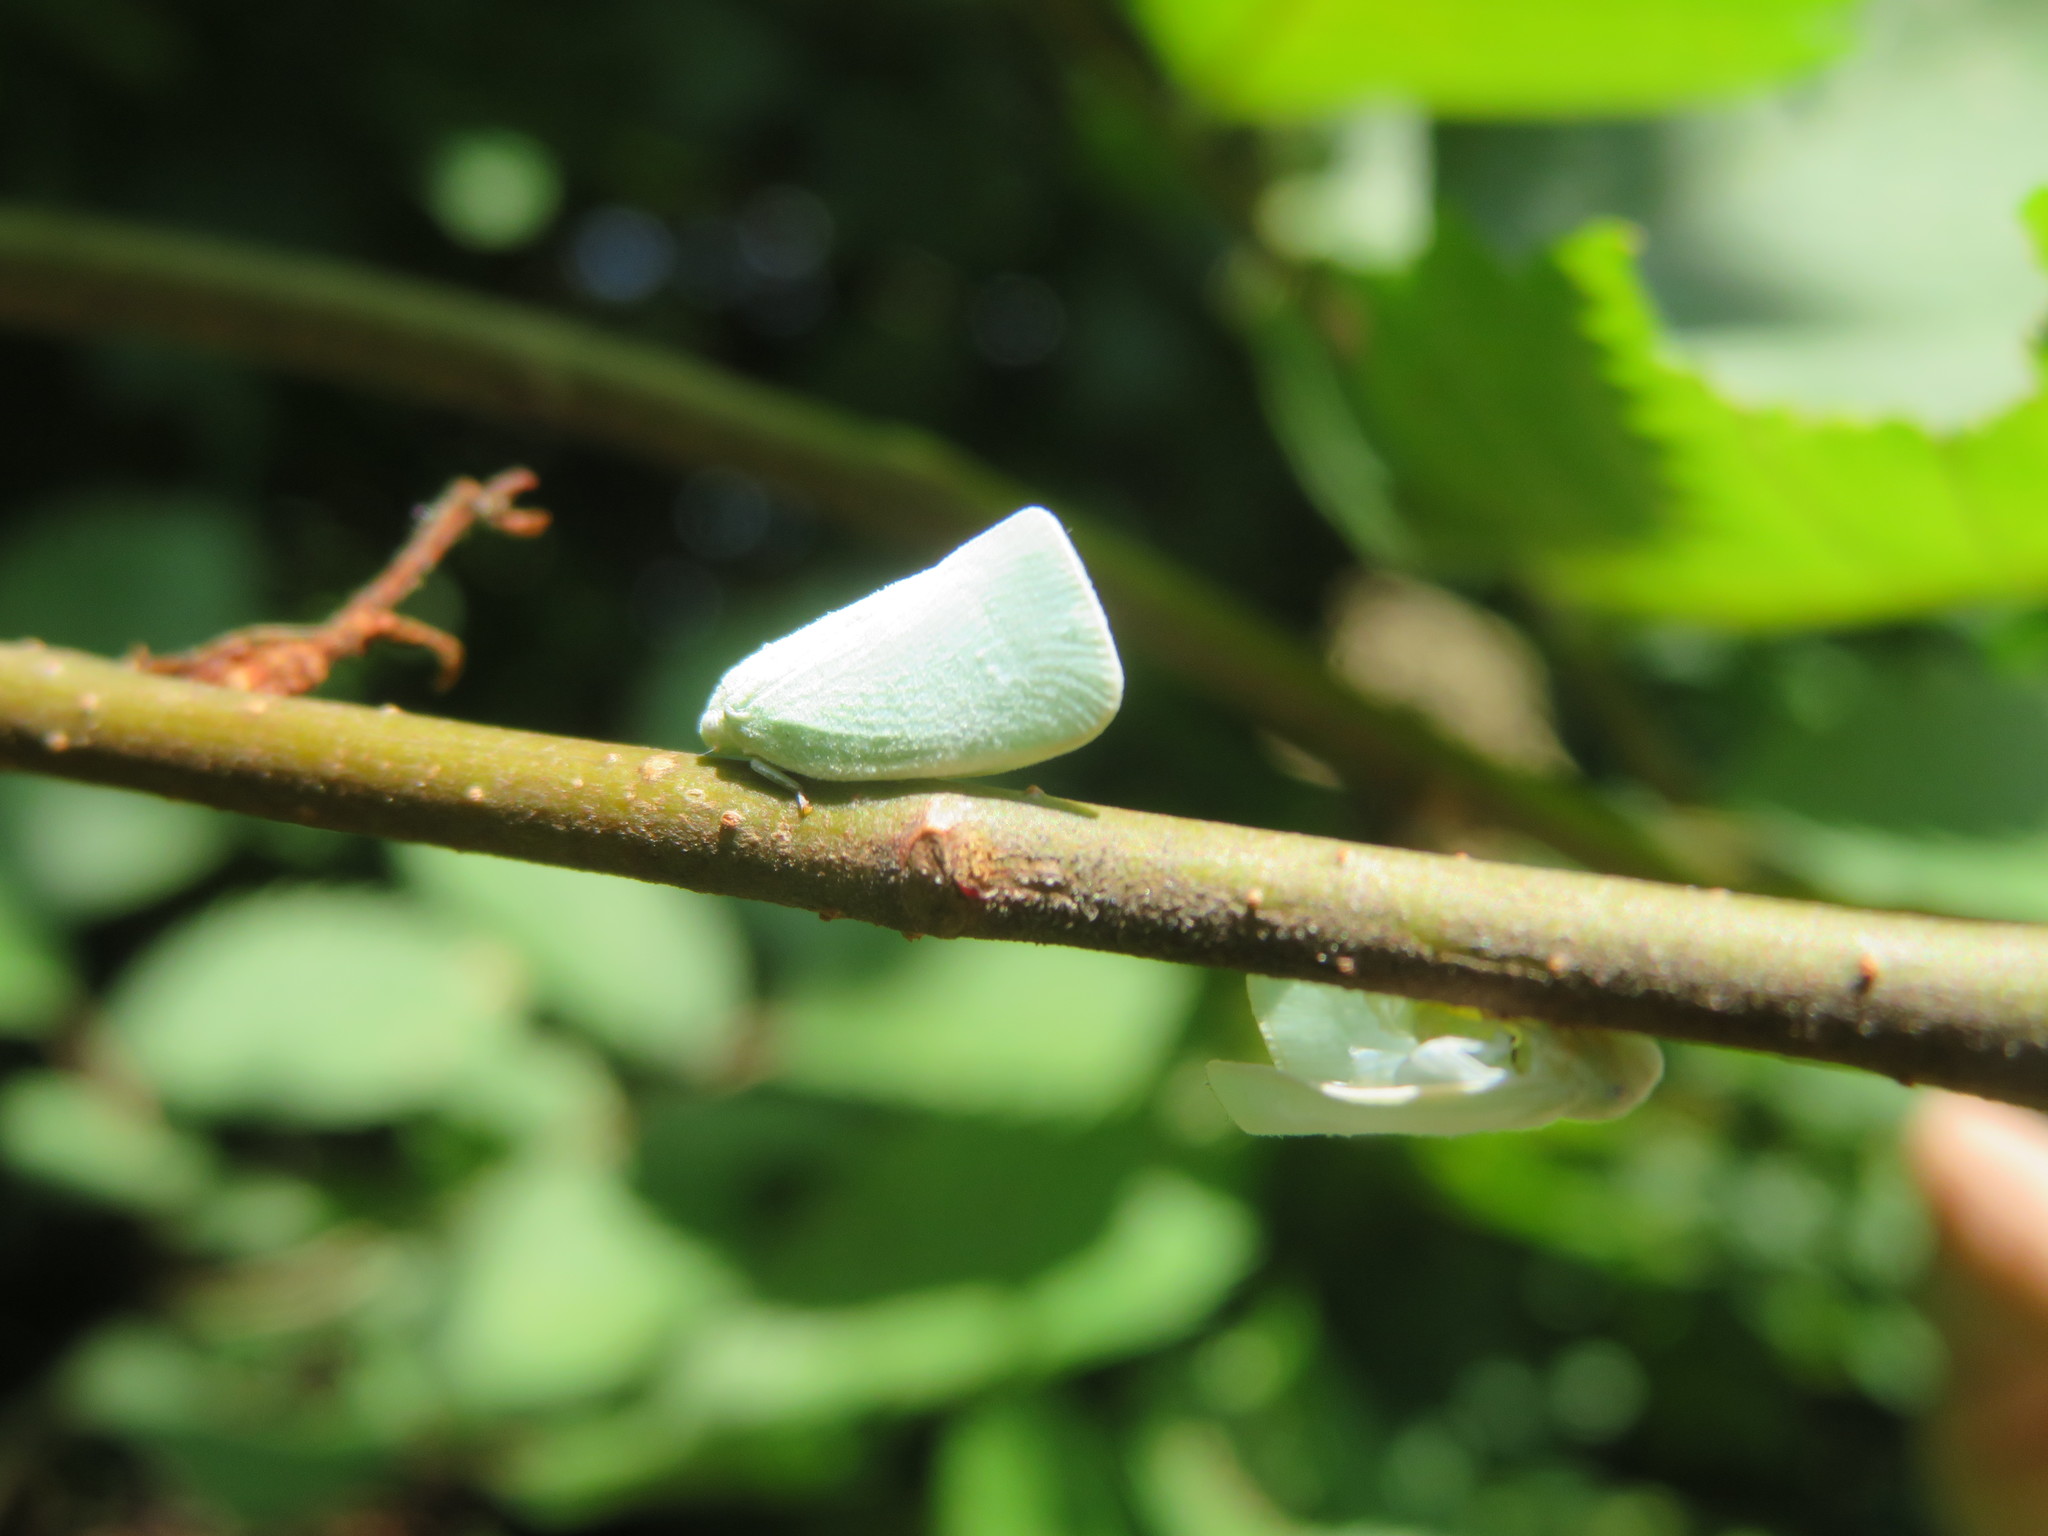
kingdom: Animalia
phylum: Arthropoda
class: Insecta
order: Hemiptera
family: Flatidae
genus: Flatormenis
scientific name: Flatormenis proxima
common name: Northern flatid planthopper
